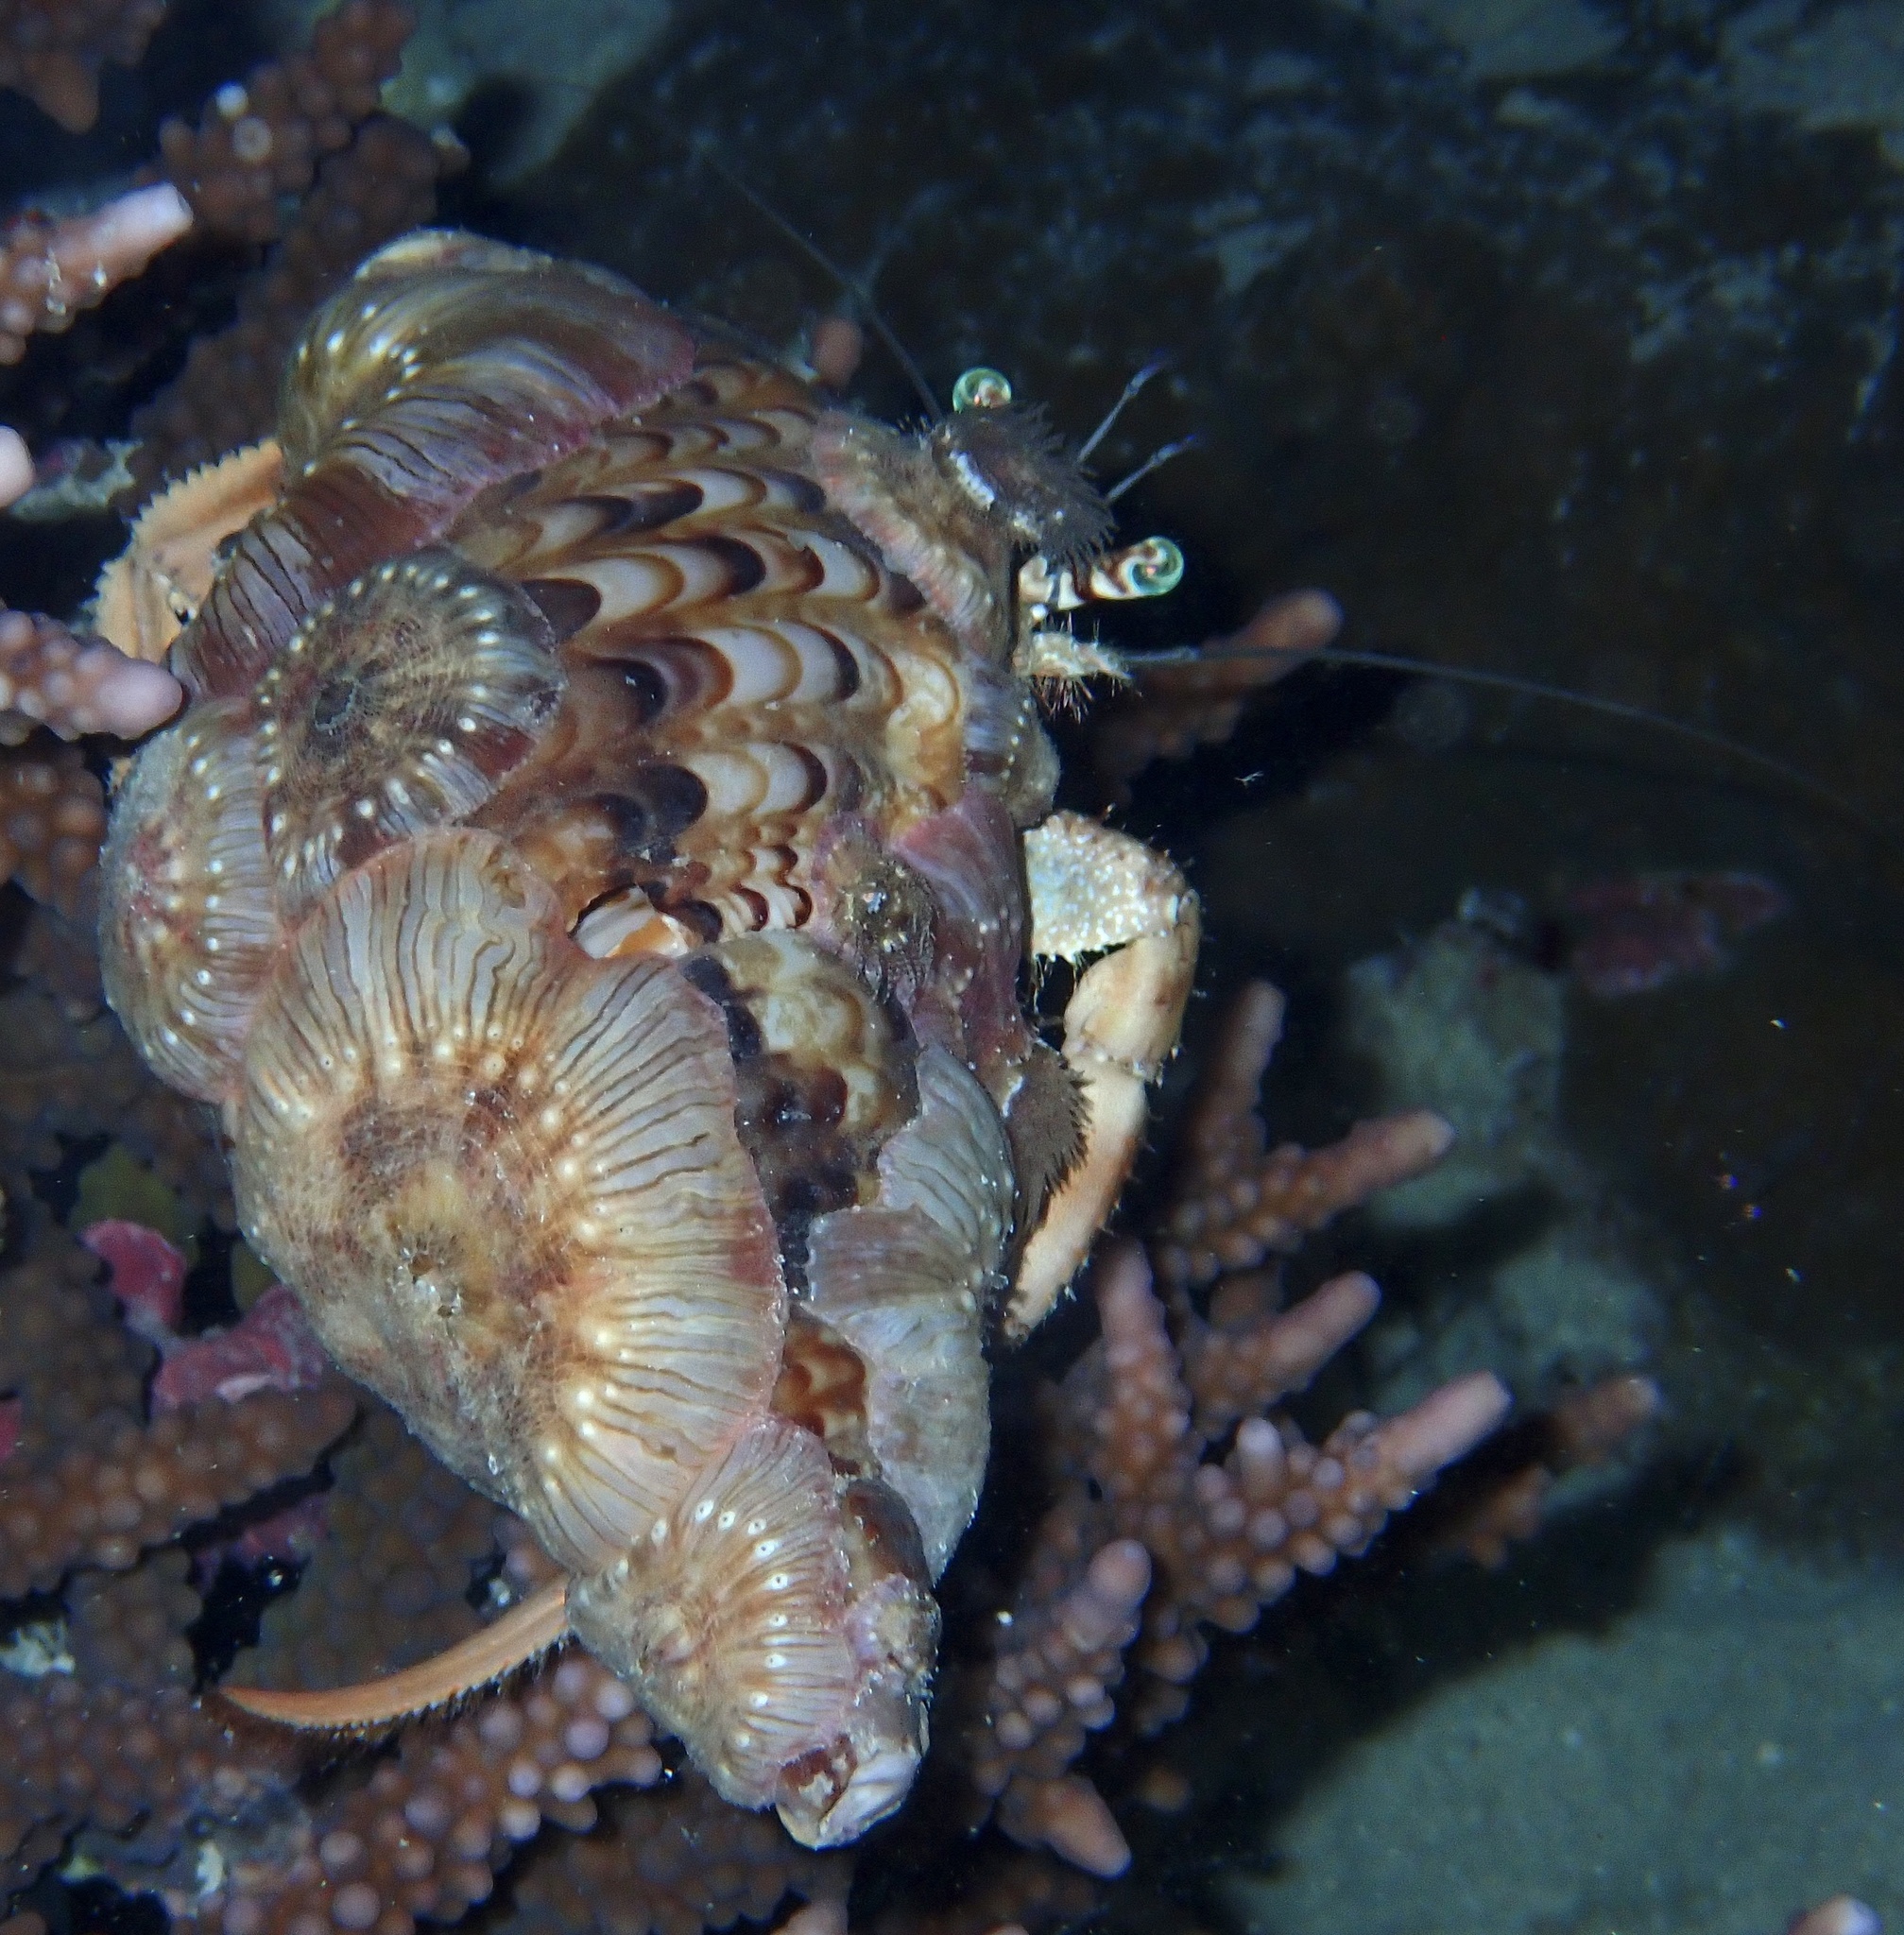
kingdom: Animalia
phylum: Arthropoda
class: Malacostraca
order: Decapoda
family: Diogenidae
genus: Dardanus
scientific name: Dardanus tinctor
